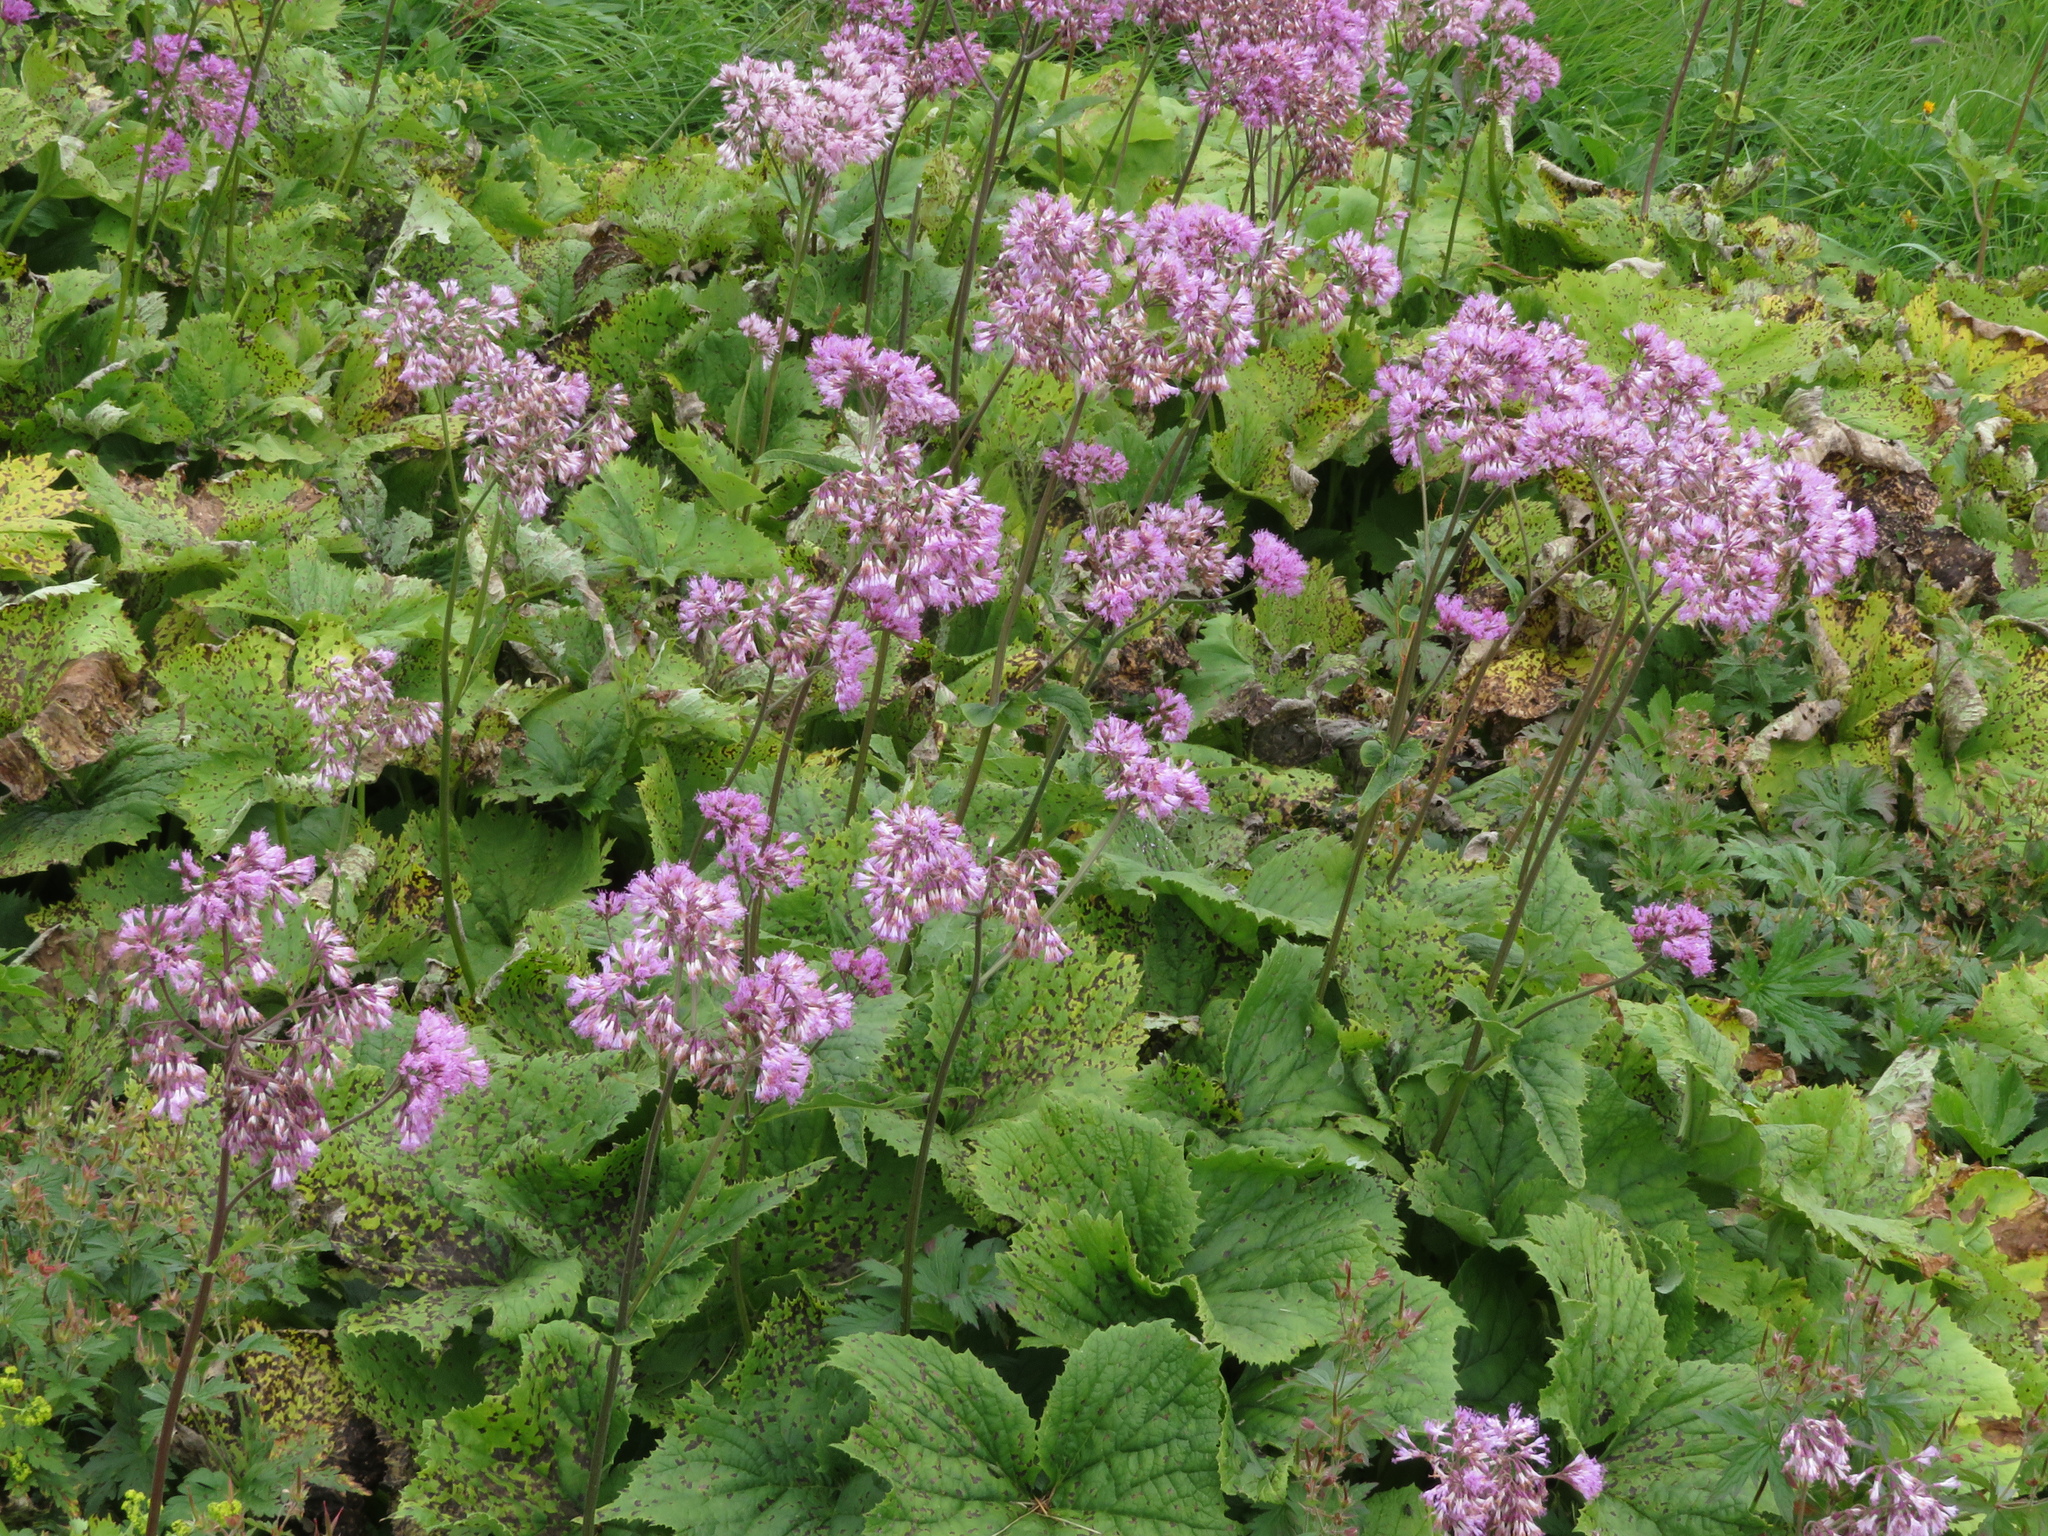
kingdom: Plantae
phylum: Tracheophyta
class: Magnoliopsida
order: Asterales
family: Asteraceae
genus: Adenostyles
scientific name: Adenostyles alliariae
